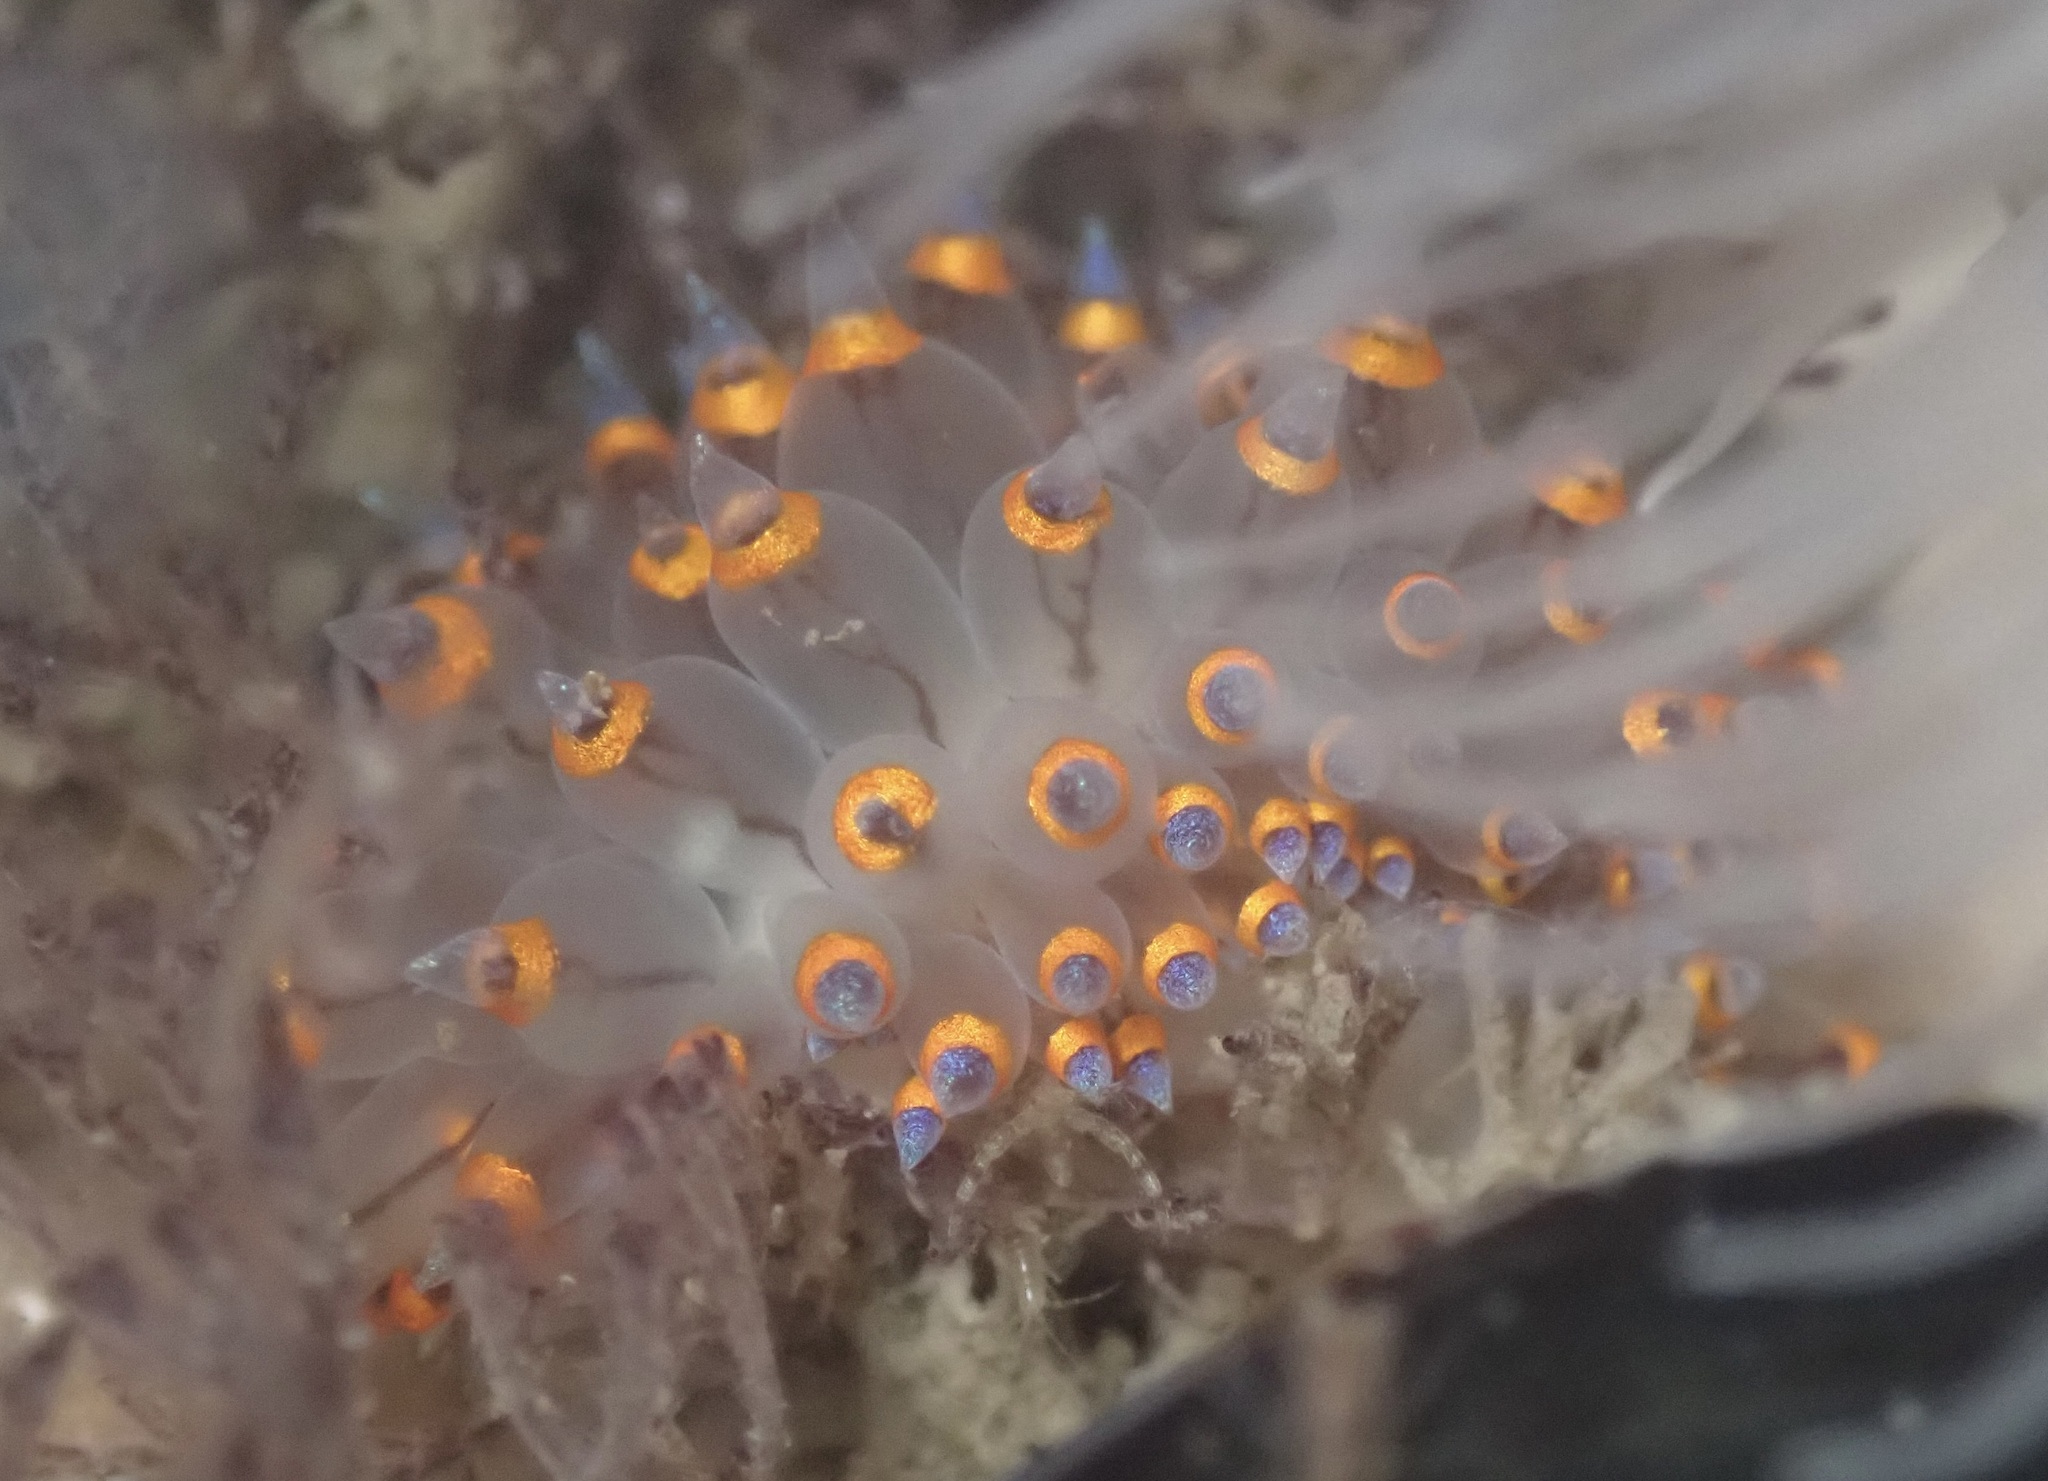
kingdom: Animalia
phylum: Mollusca
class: Gastropoda
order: Nudibranchia
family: Janolidae
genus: Antiopella
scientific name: Antiopella barbarensis
